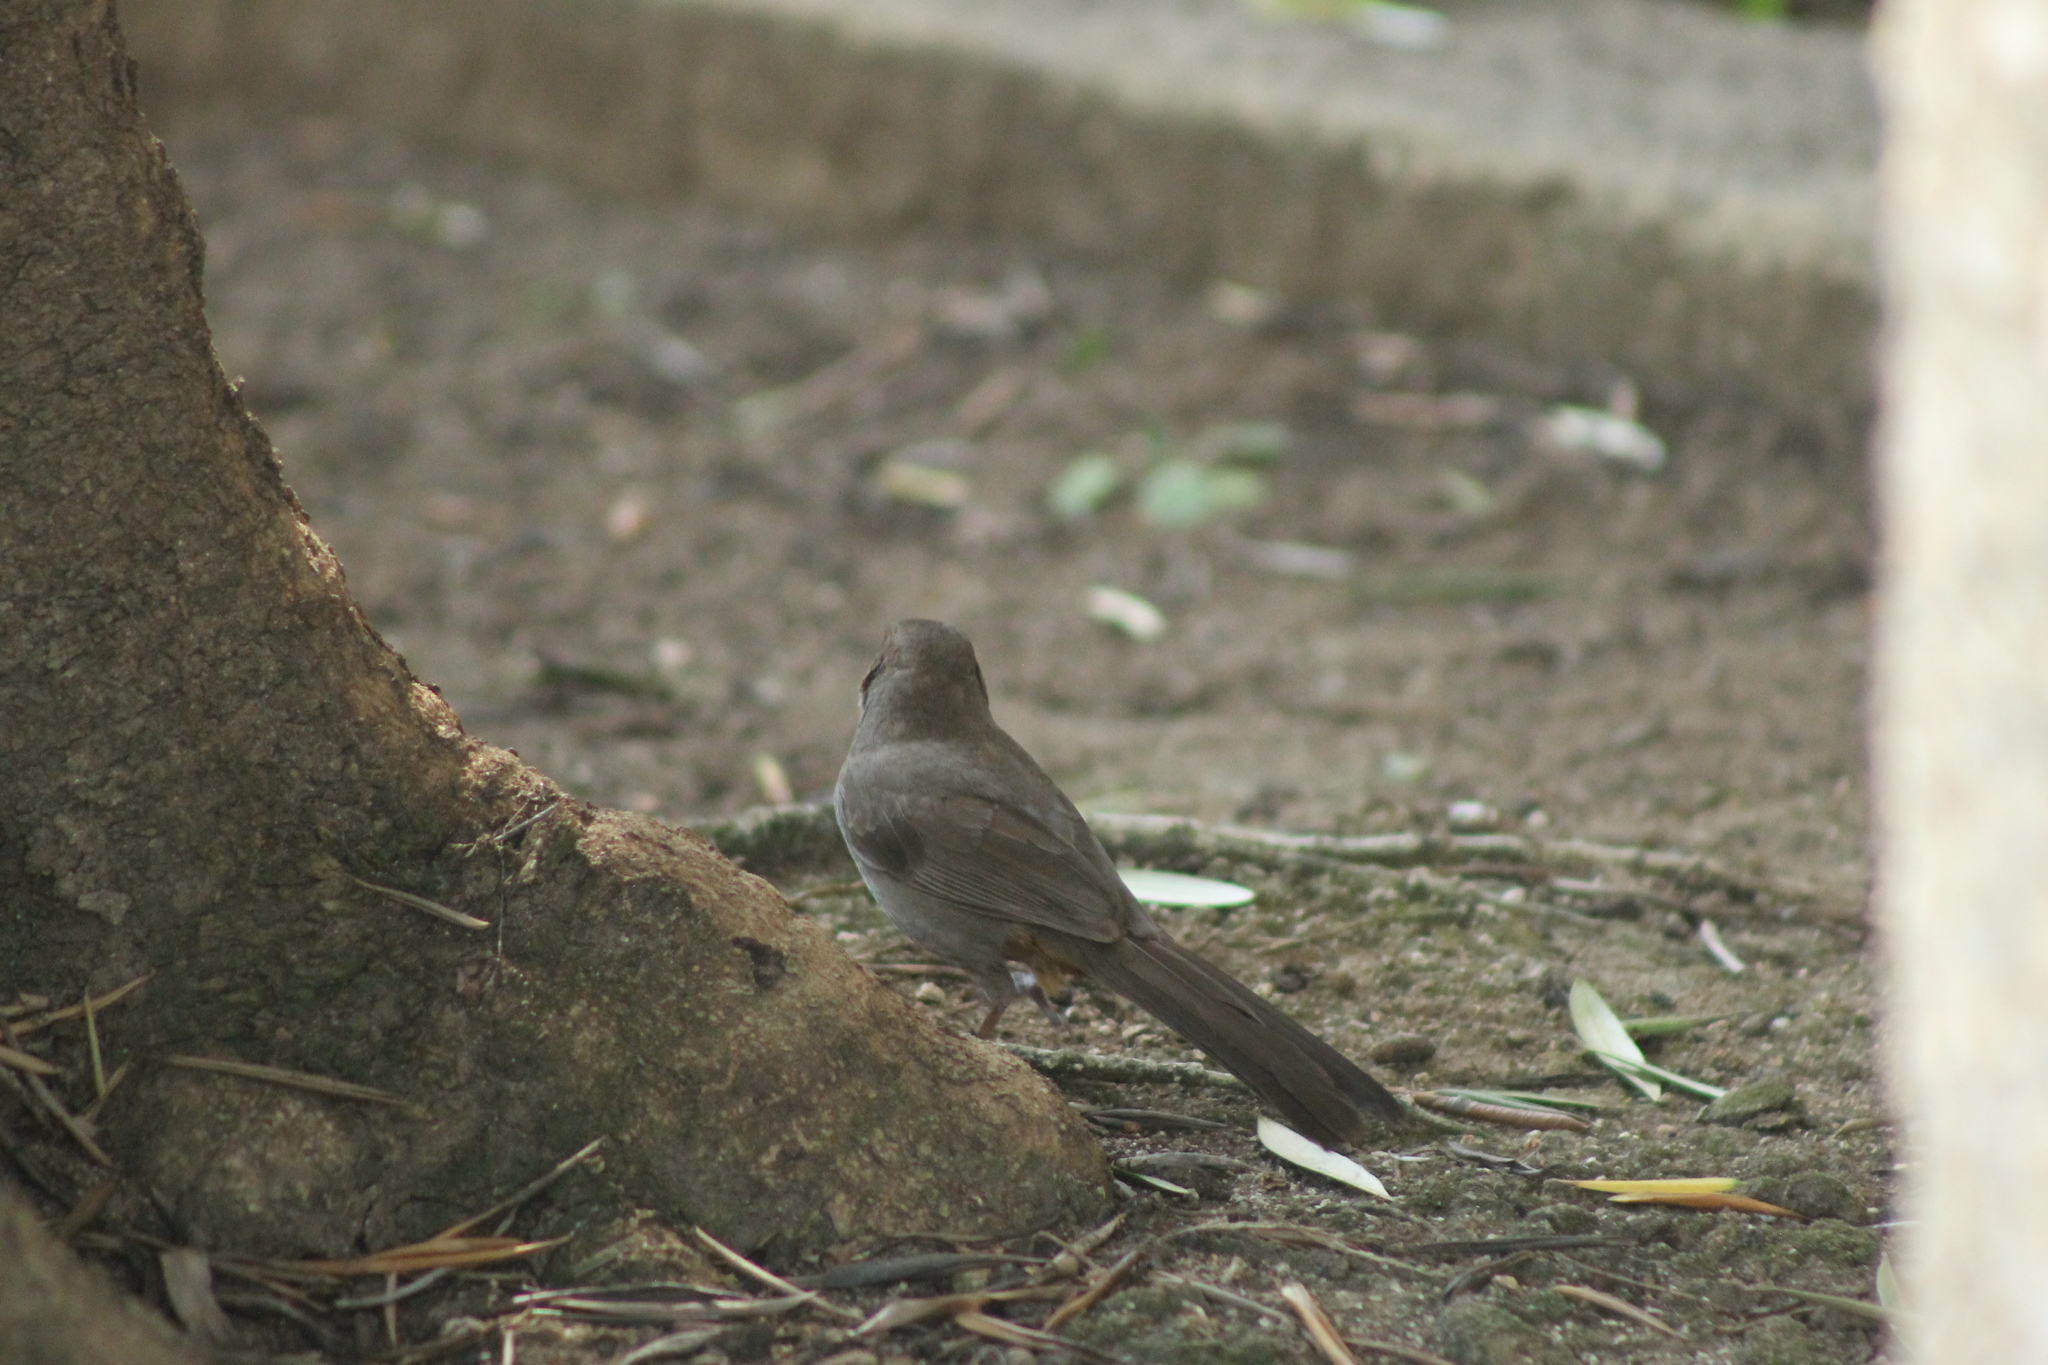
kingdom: Animalia
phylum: Chordata
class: Aves
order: Passeriformes
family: Passerellidae
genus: Melozone
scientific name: Melozone crissalis
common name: California towhee
